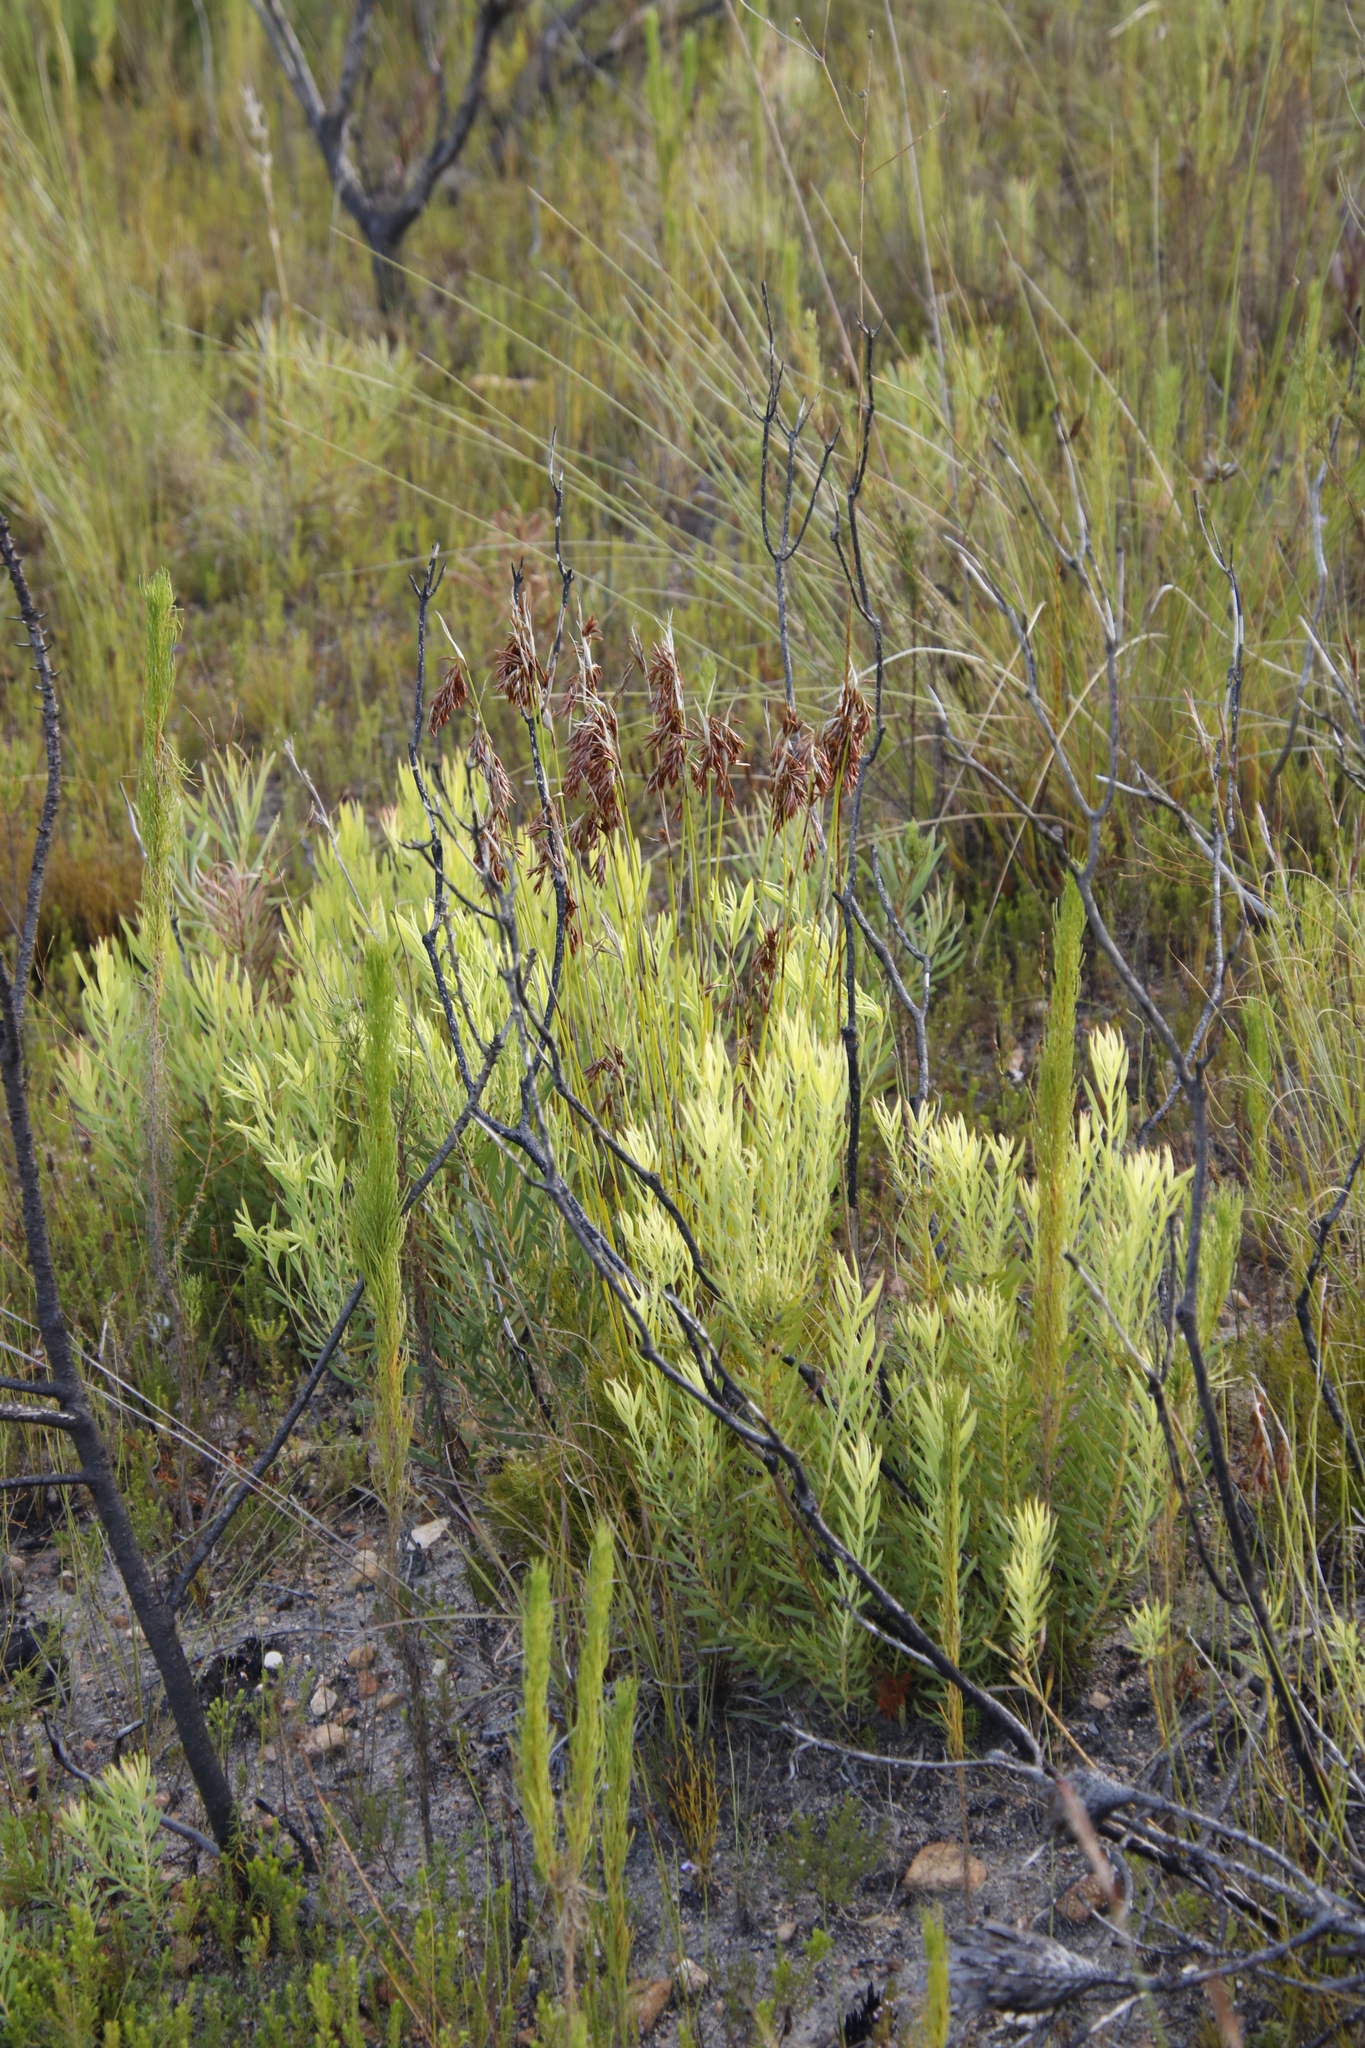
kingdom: Plantae
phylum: Tracheophyta
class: Magnoliopsida
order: Proteales
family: Proteaceae
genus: Leucadendron
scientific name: Leucadendron salignum
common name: Common sunshine conebush
